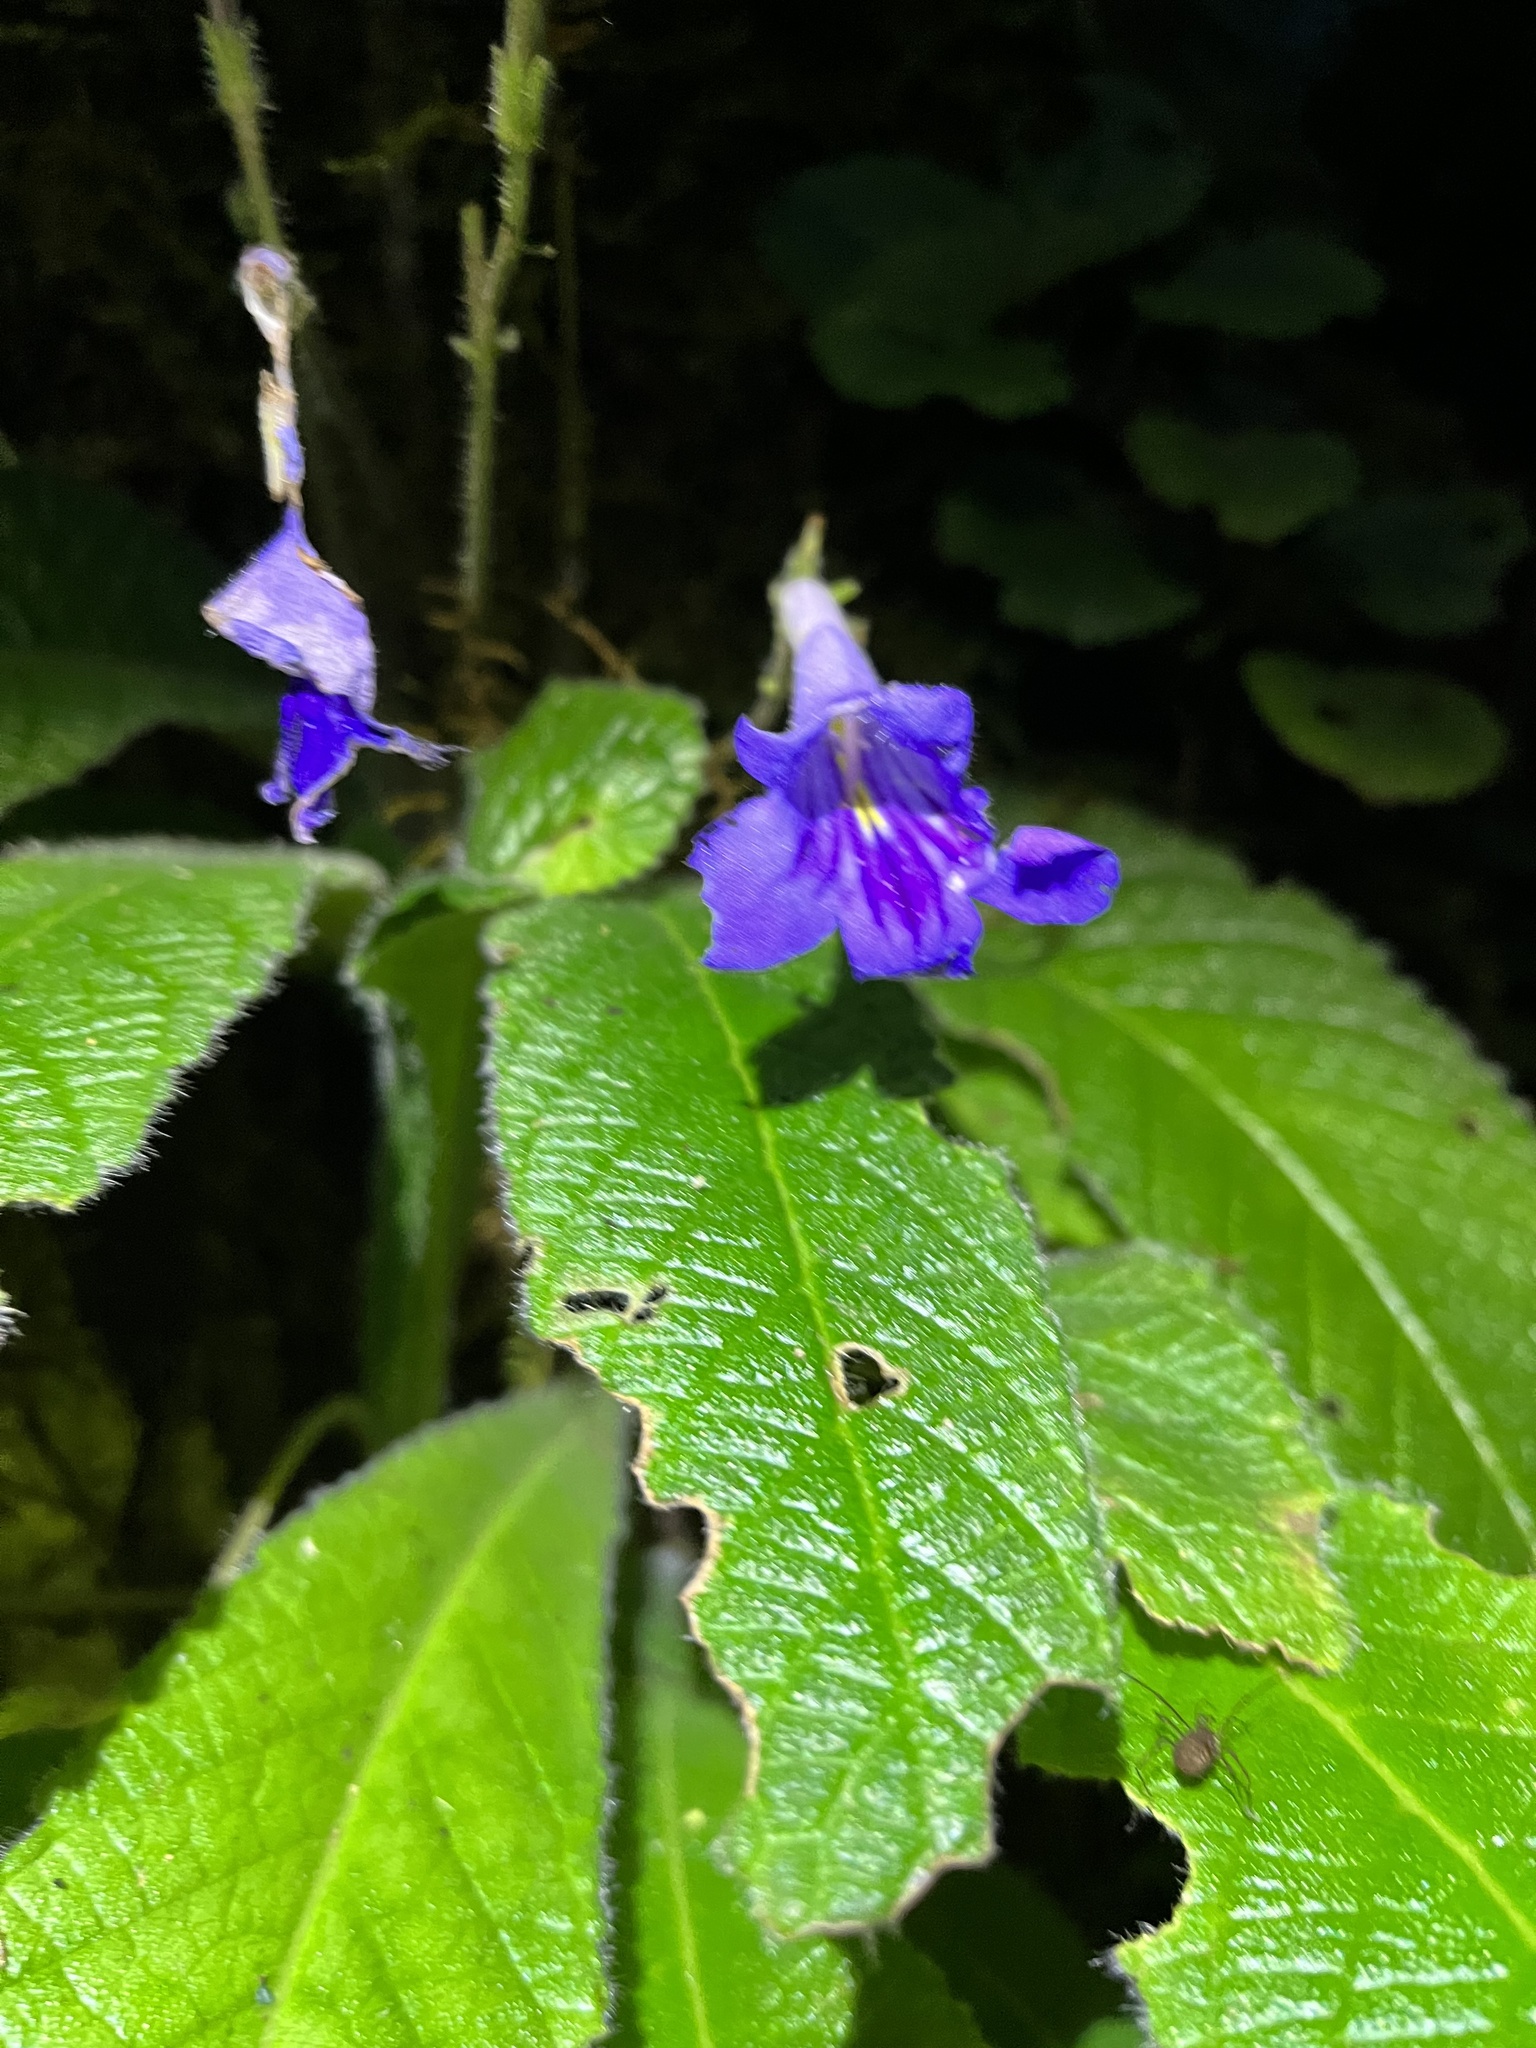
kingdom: Plantae
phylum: Tracheophyta
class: Magnoliopsida
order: Lamiales
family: Gesneriaceae
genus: Streptocarpus
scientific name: Streptocarpus cyaneus
